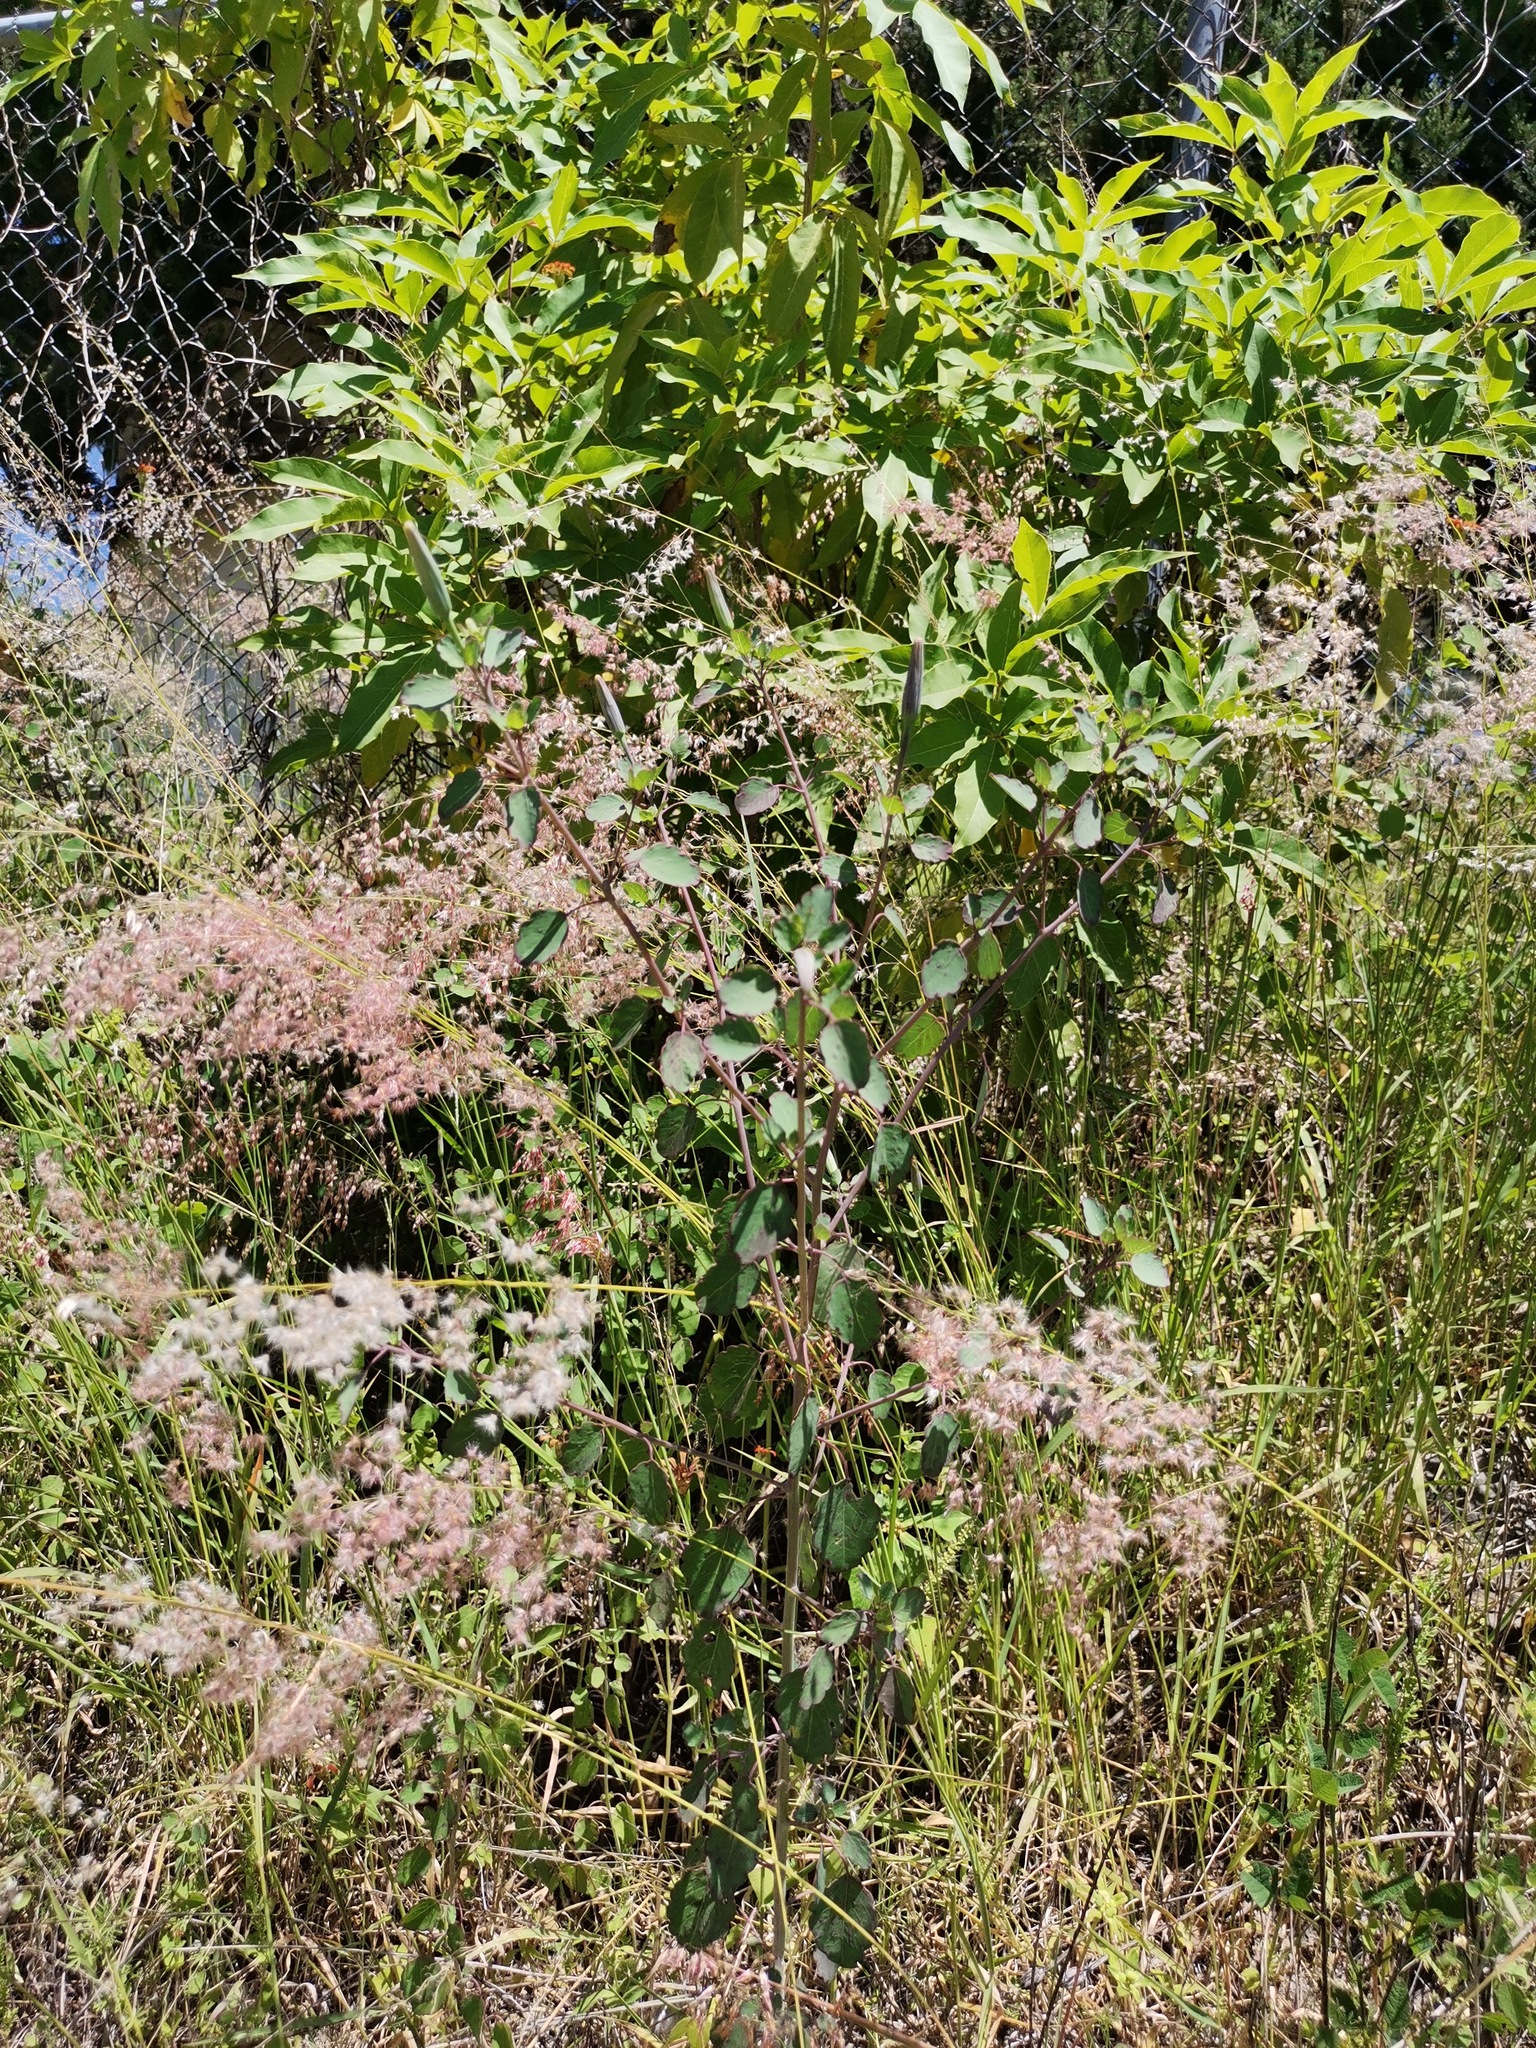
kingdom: Plantae
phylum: Tracheophyta
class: Liliopsida
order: Poales
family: Poaceae
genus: Melinis
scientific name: Melinis repens
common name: Rose natal grass
